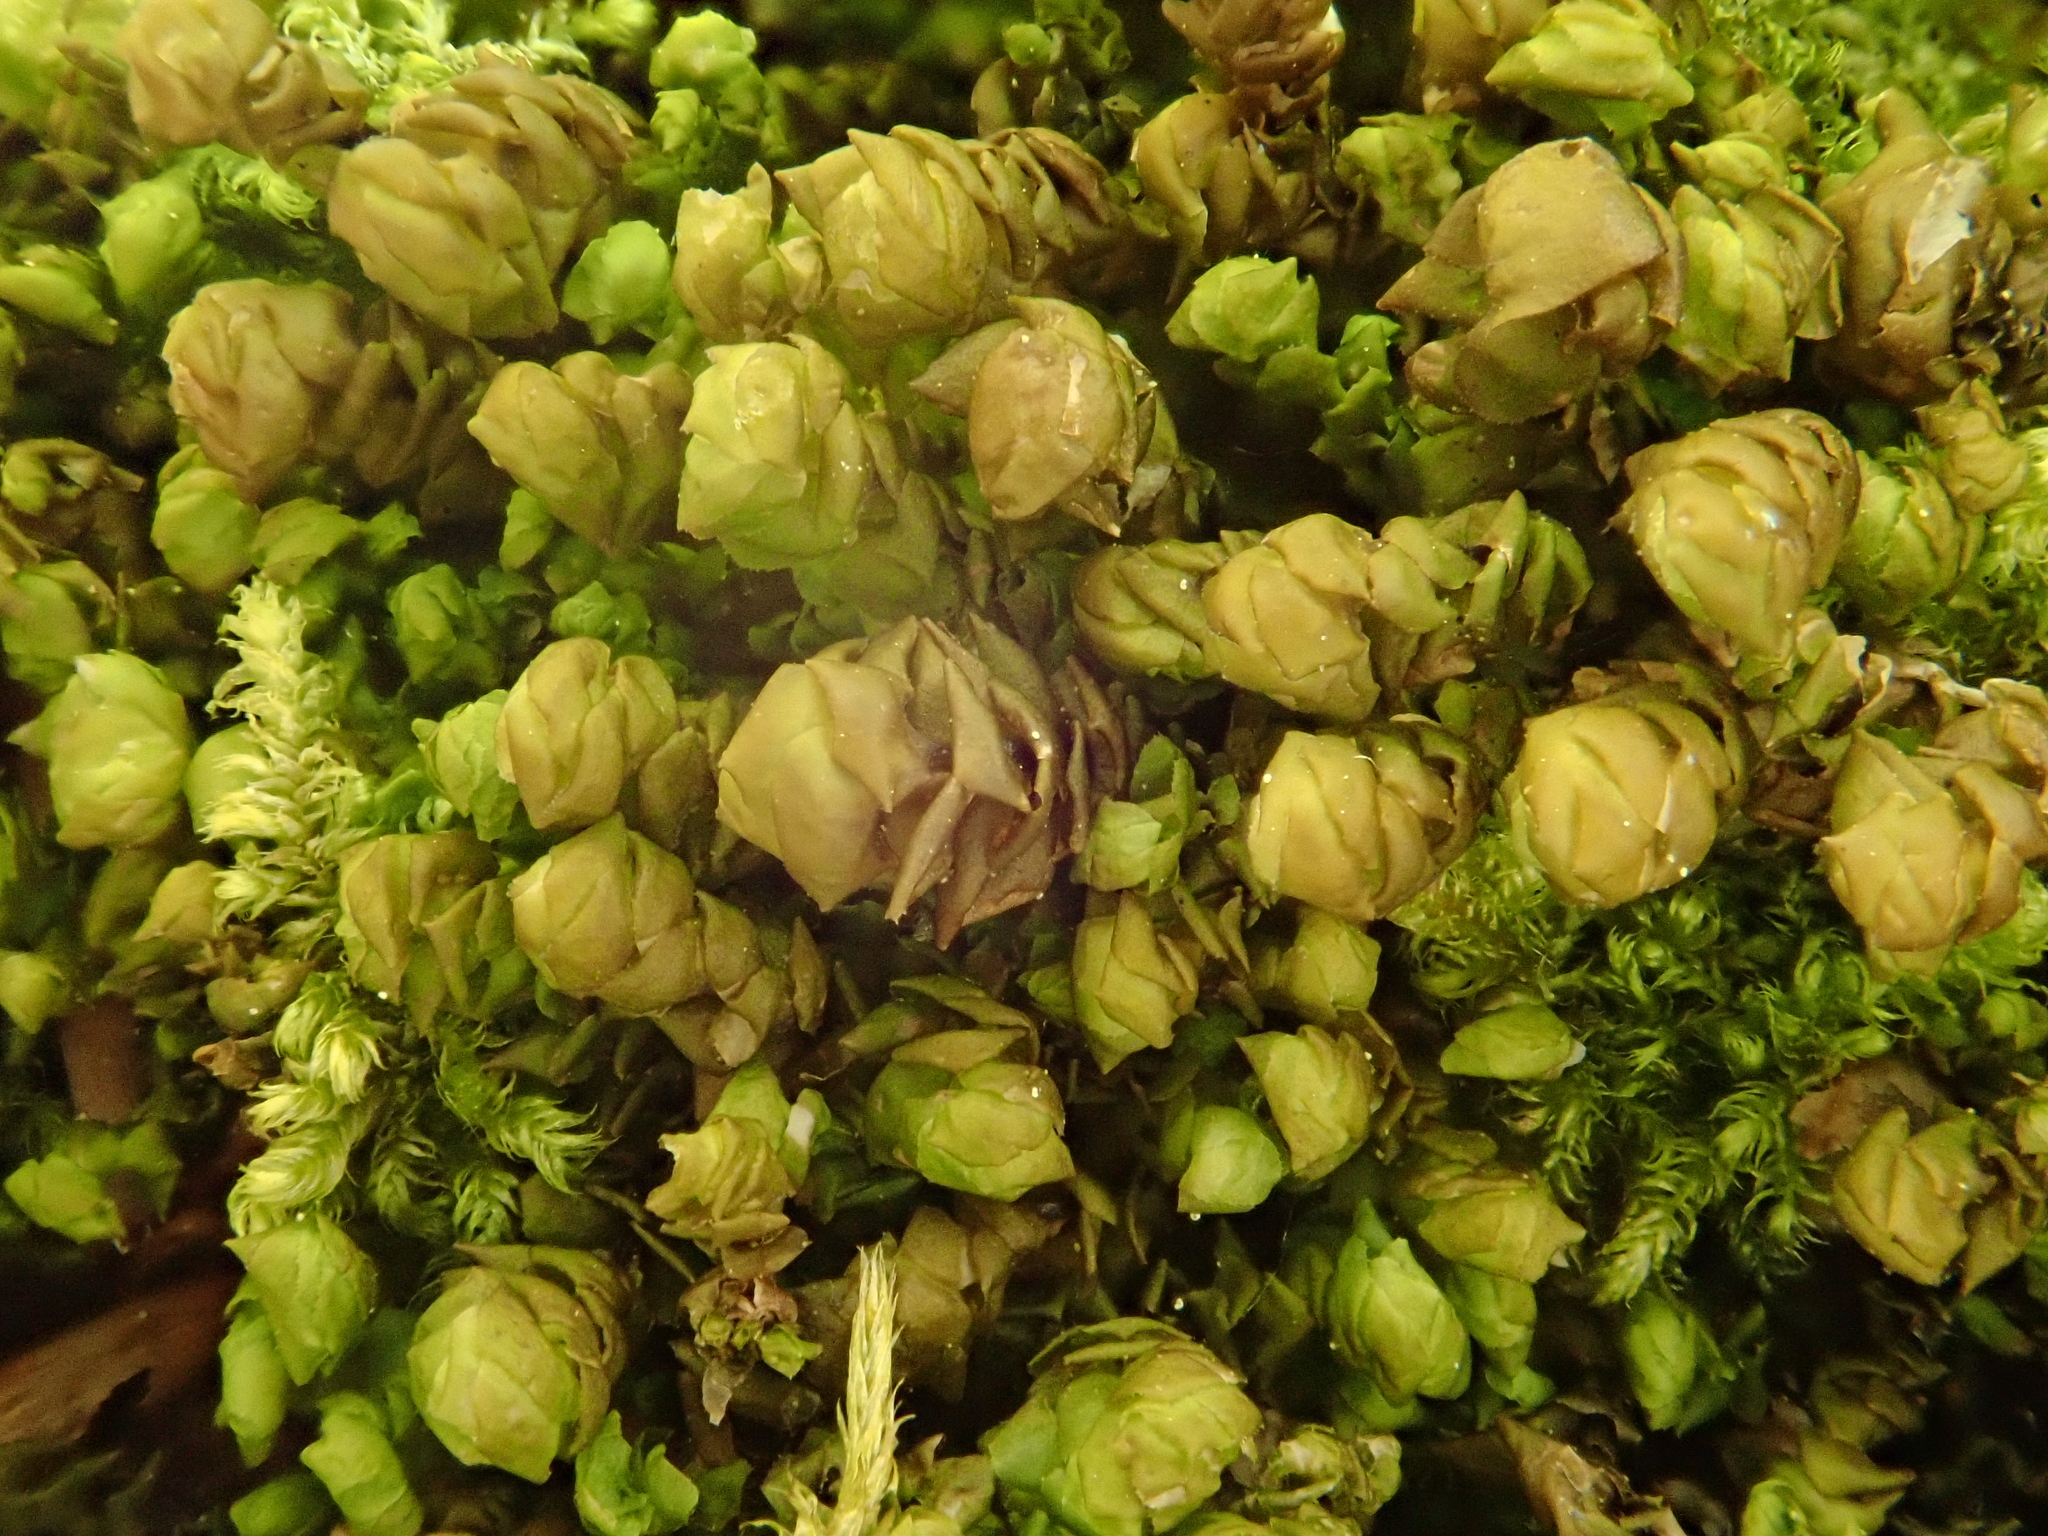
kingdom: Plantae
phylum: Marchantiophyta
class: Jungermanniopsida
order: Jungermanniales
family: Scapaniaceae
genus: Scapania
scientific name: Scapania aspera
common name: Rough earwort
